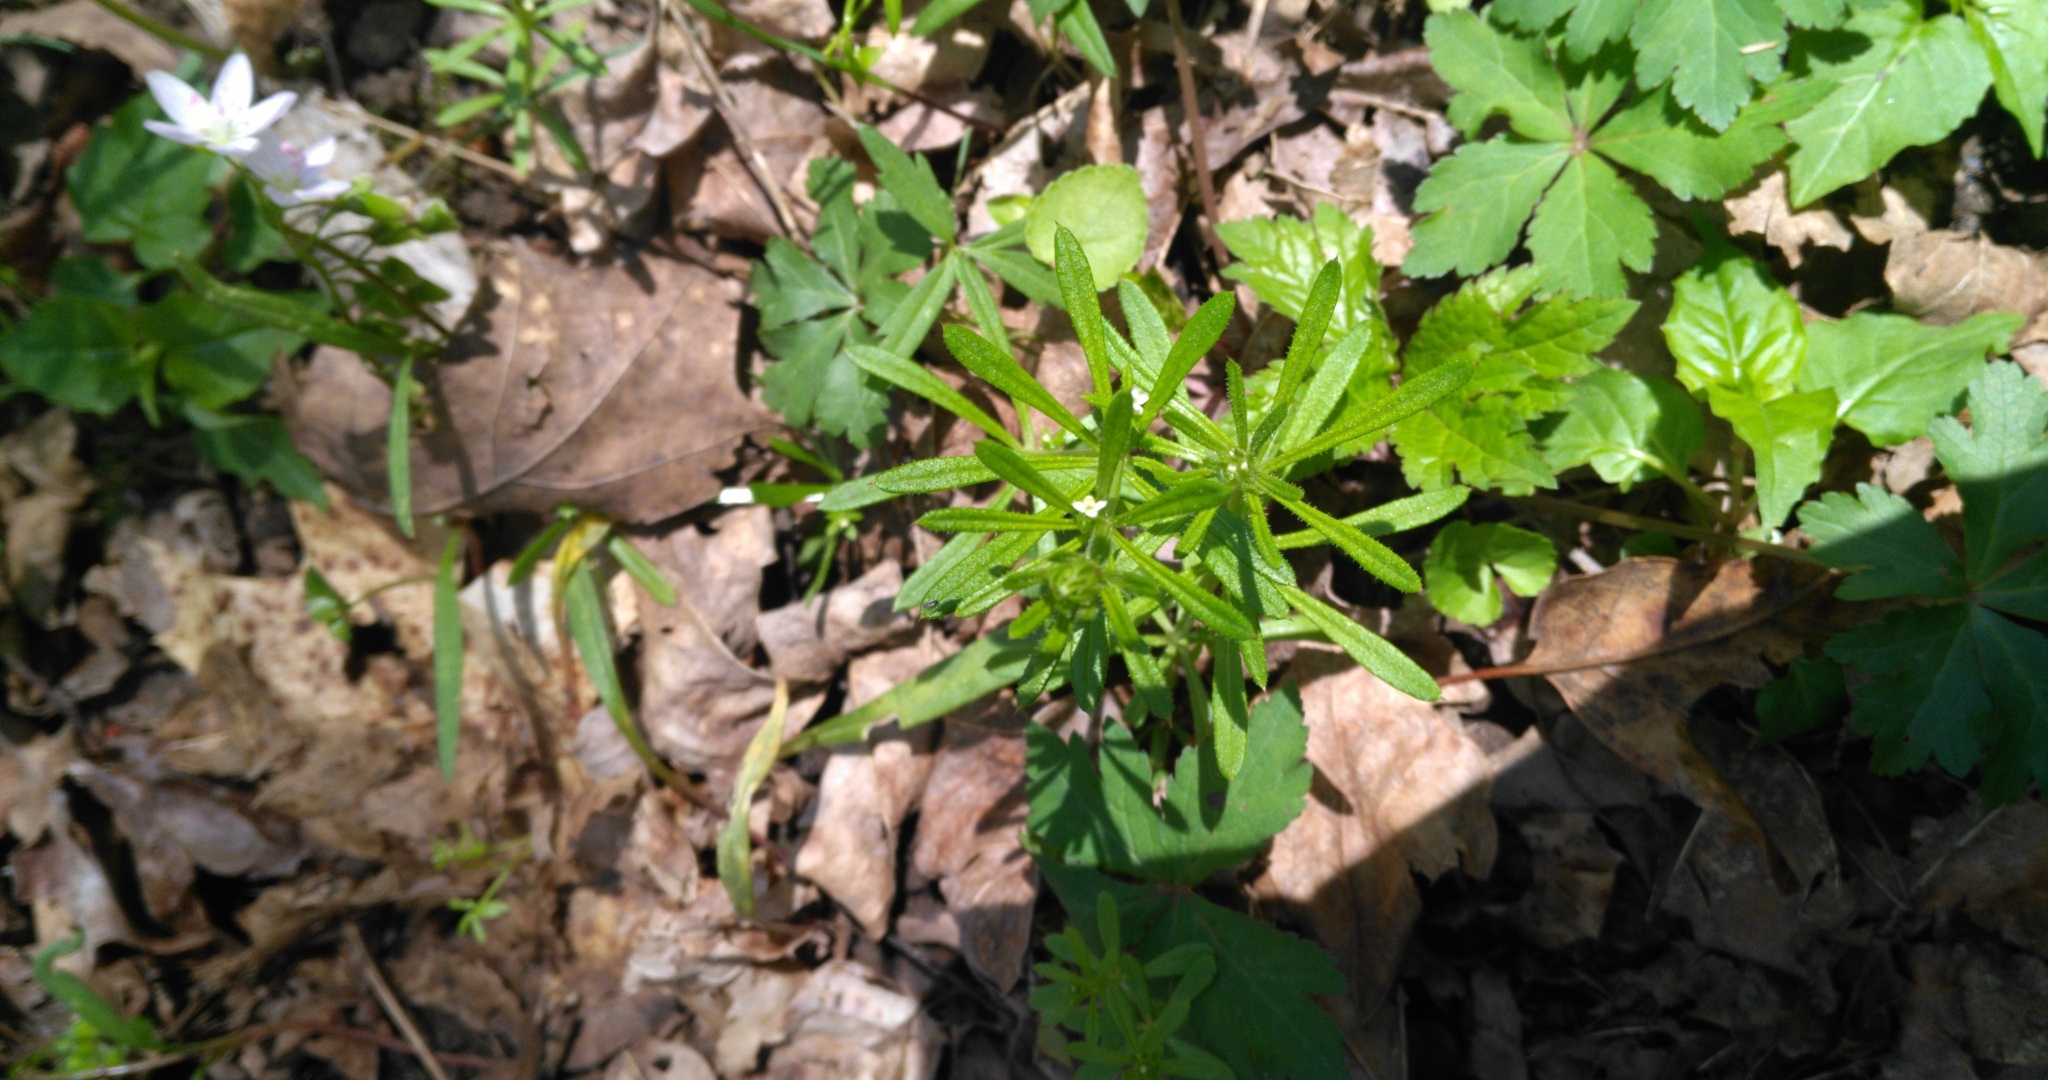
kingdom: Plantae
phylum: Tracheophyta
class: Magnoliopsida
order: Brassicales
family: Limnanthaceae
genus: Floerkea
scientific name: Floerkea proserpinacoides
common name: False mermaid
